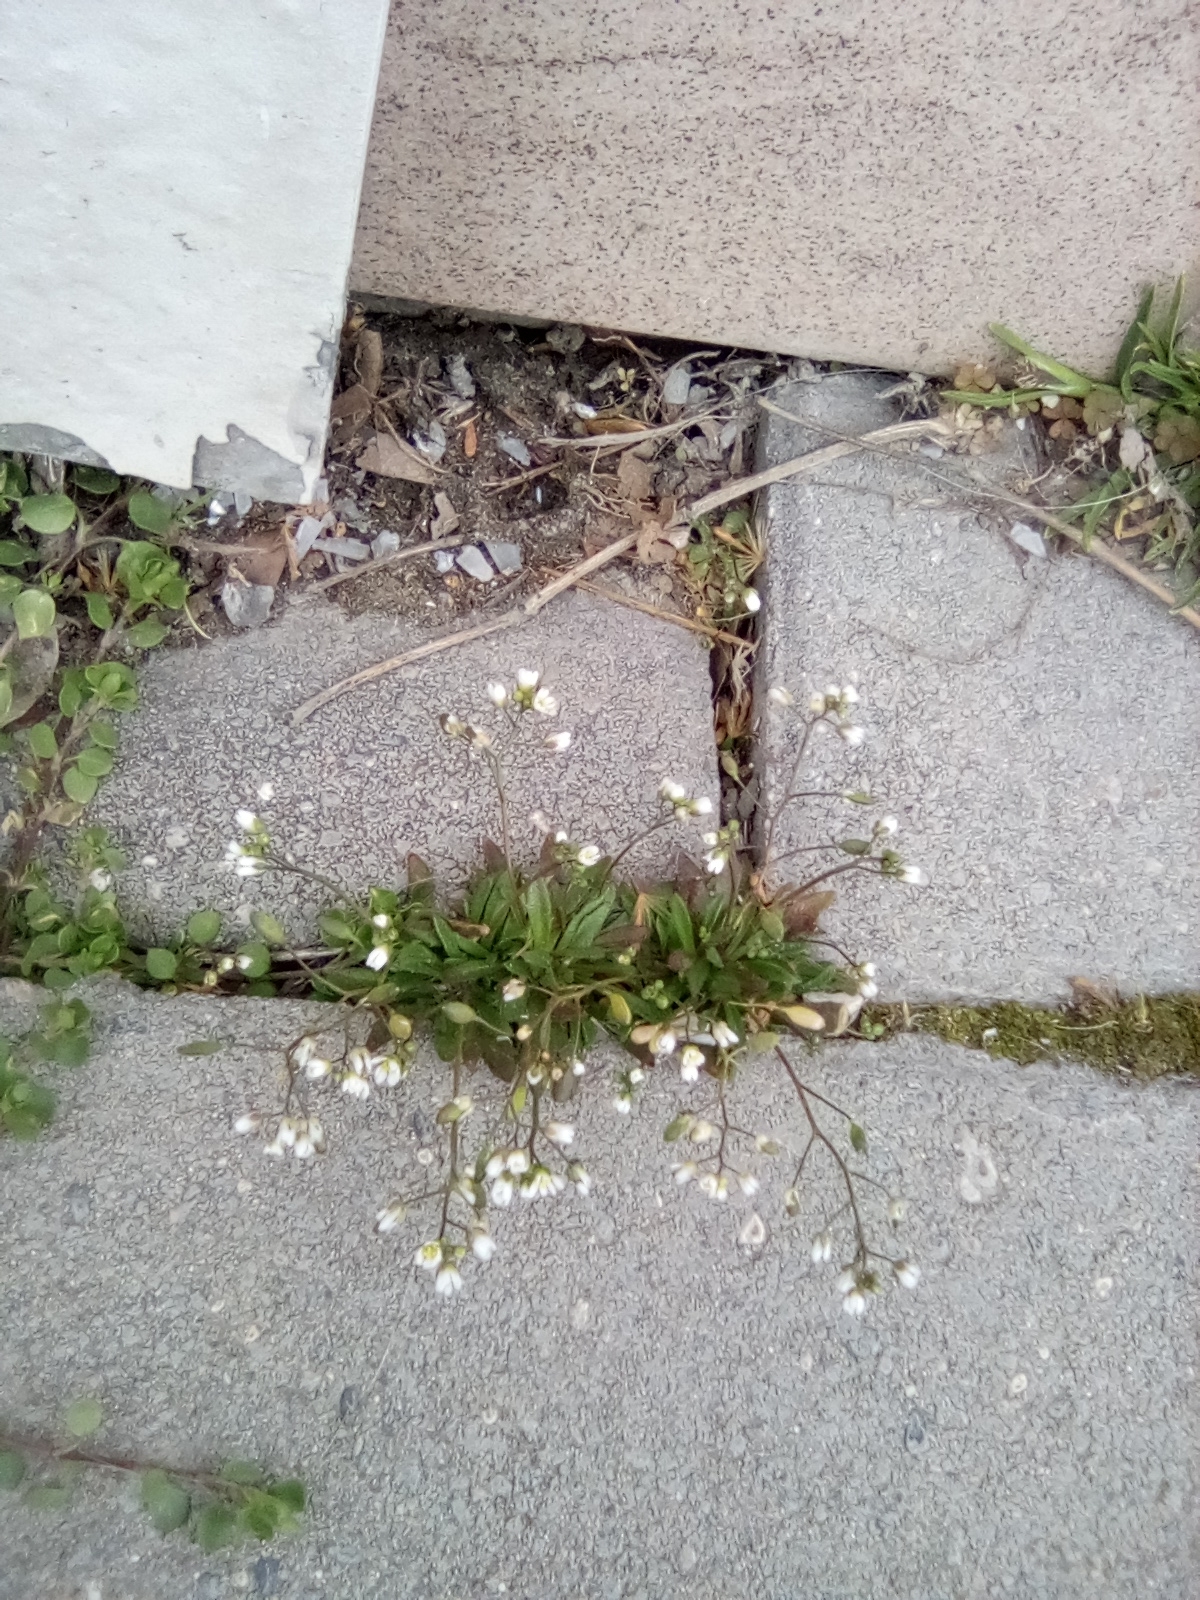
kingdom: Plantae
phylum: Tracheophyta
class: Magnoliopsida
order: Brassicales
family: Brassicaceae
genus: Draba
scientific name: Draba verna
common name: Spring draba
